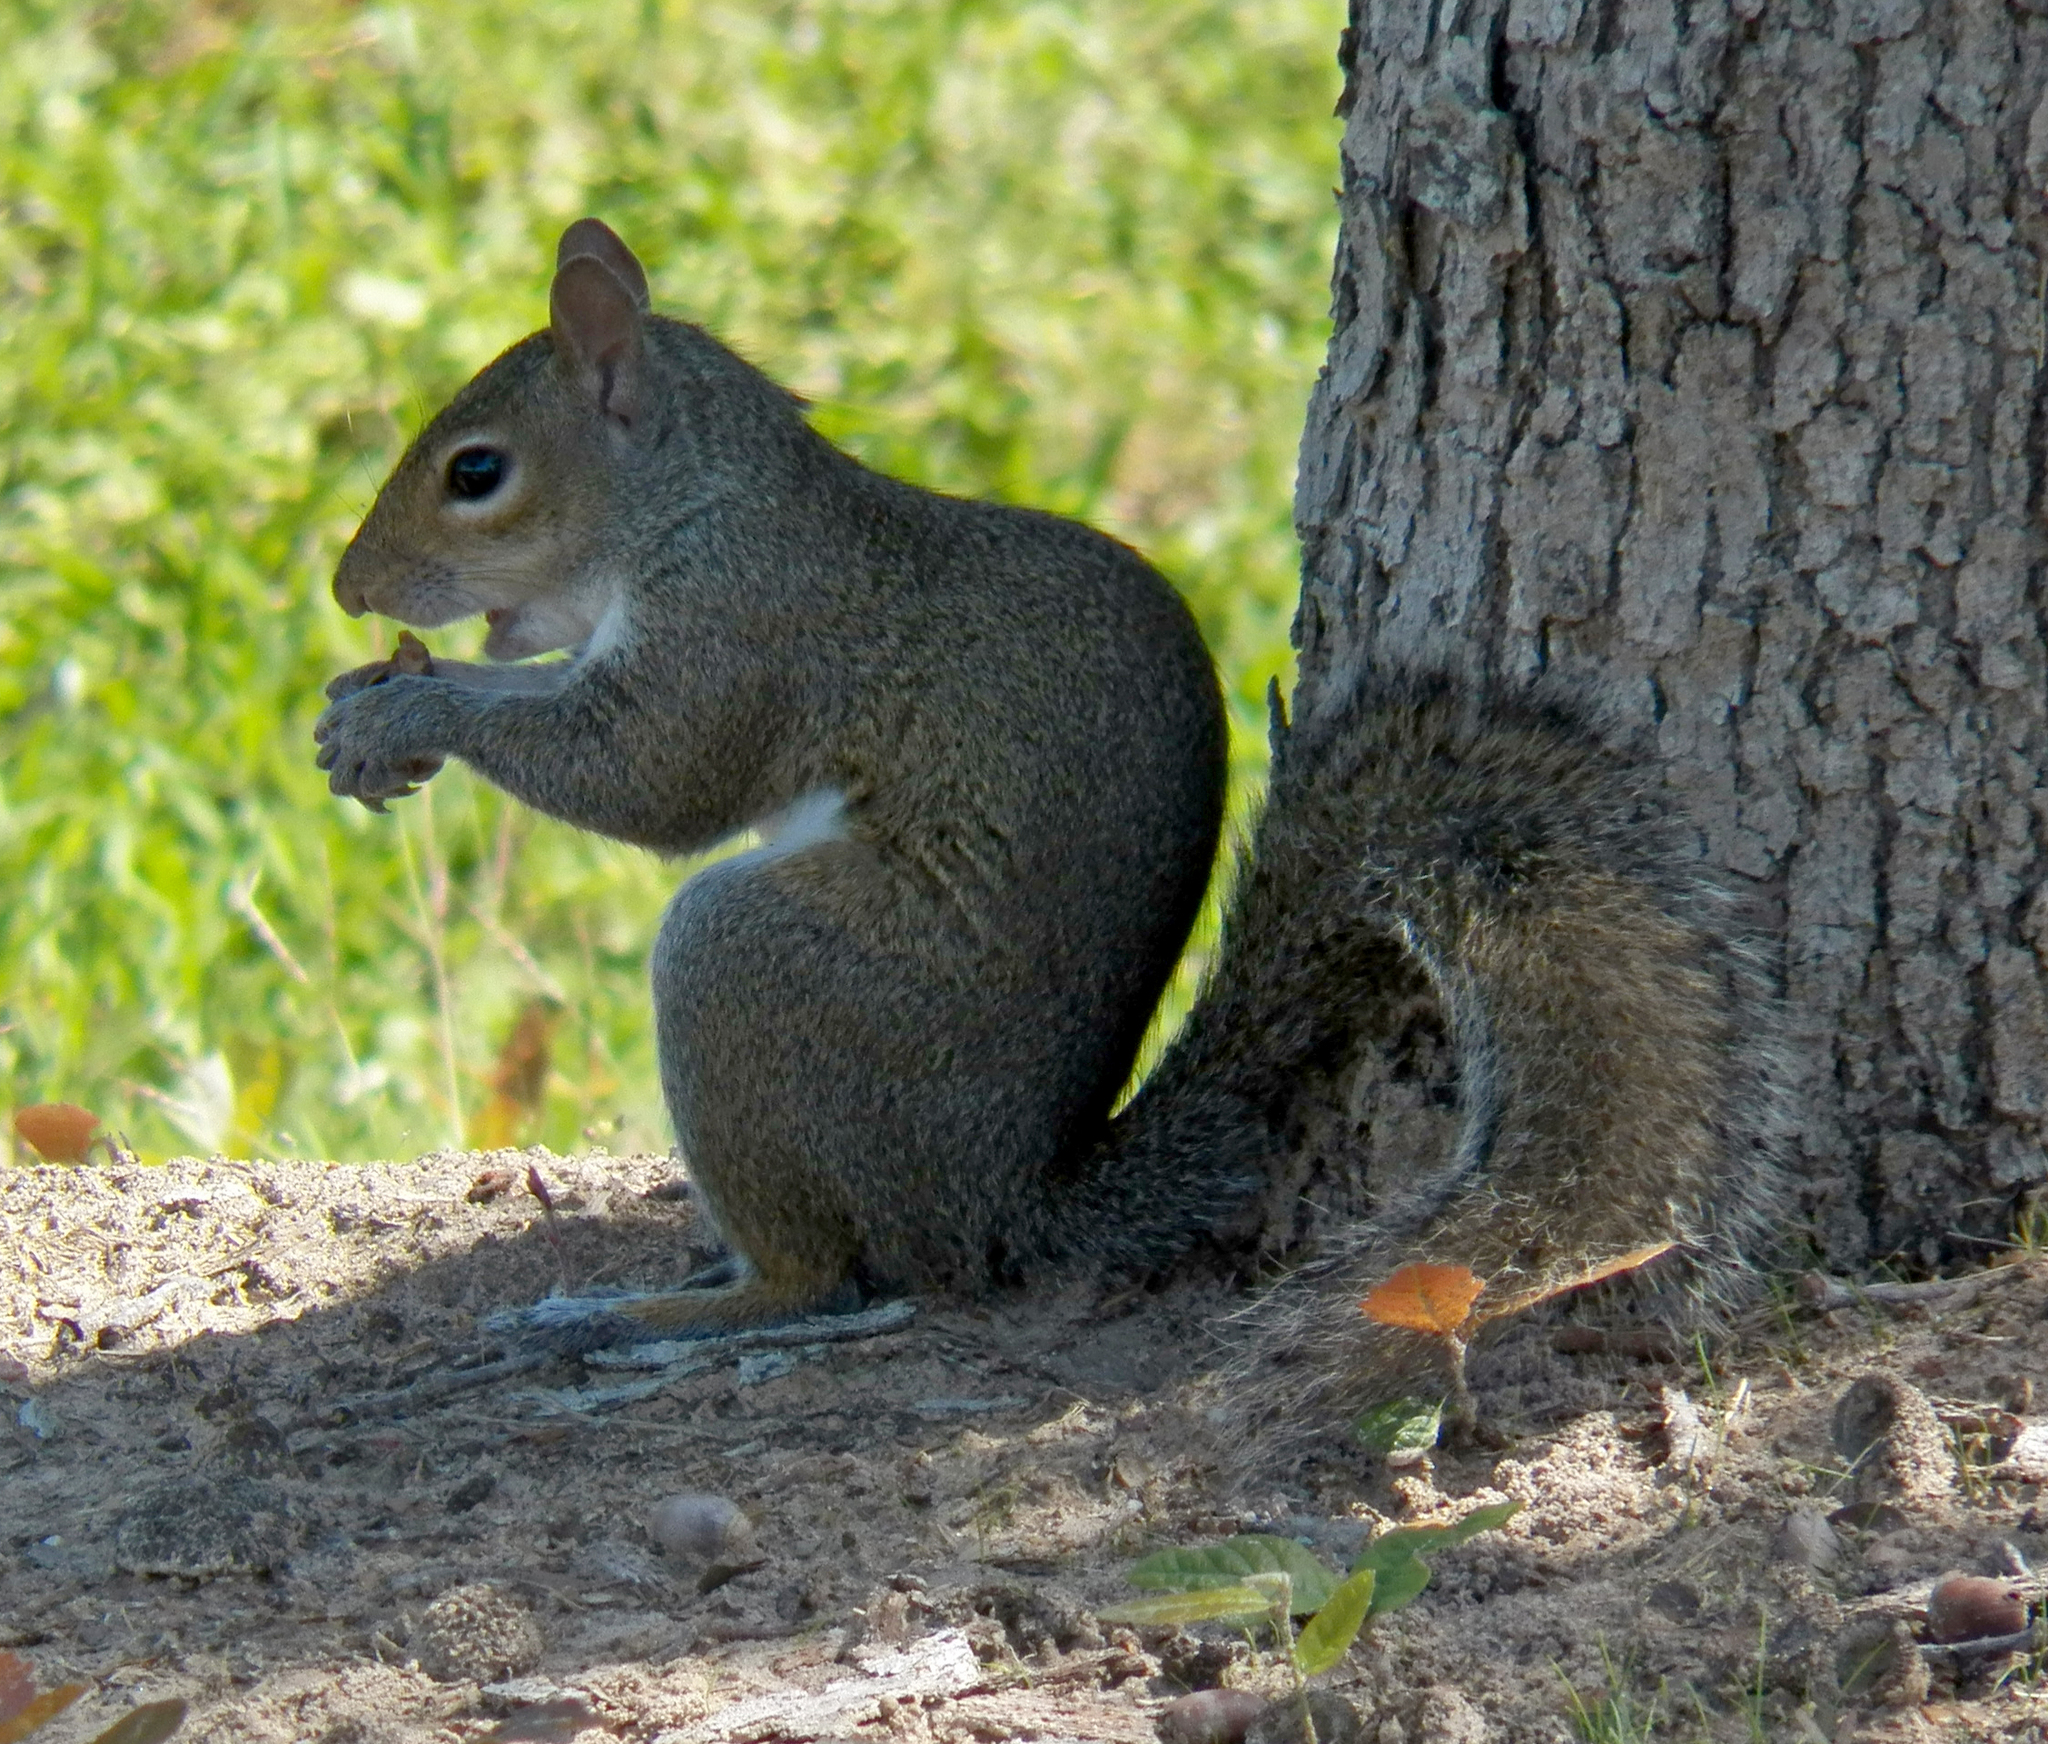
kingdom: Animalia
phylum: Chordata
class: Mammalia
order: Rodentia
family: Sciuridae
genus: Sciurus
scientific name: Sciurus carolinensis
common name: Eastern gray squirrel
